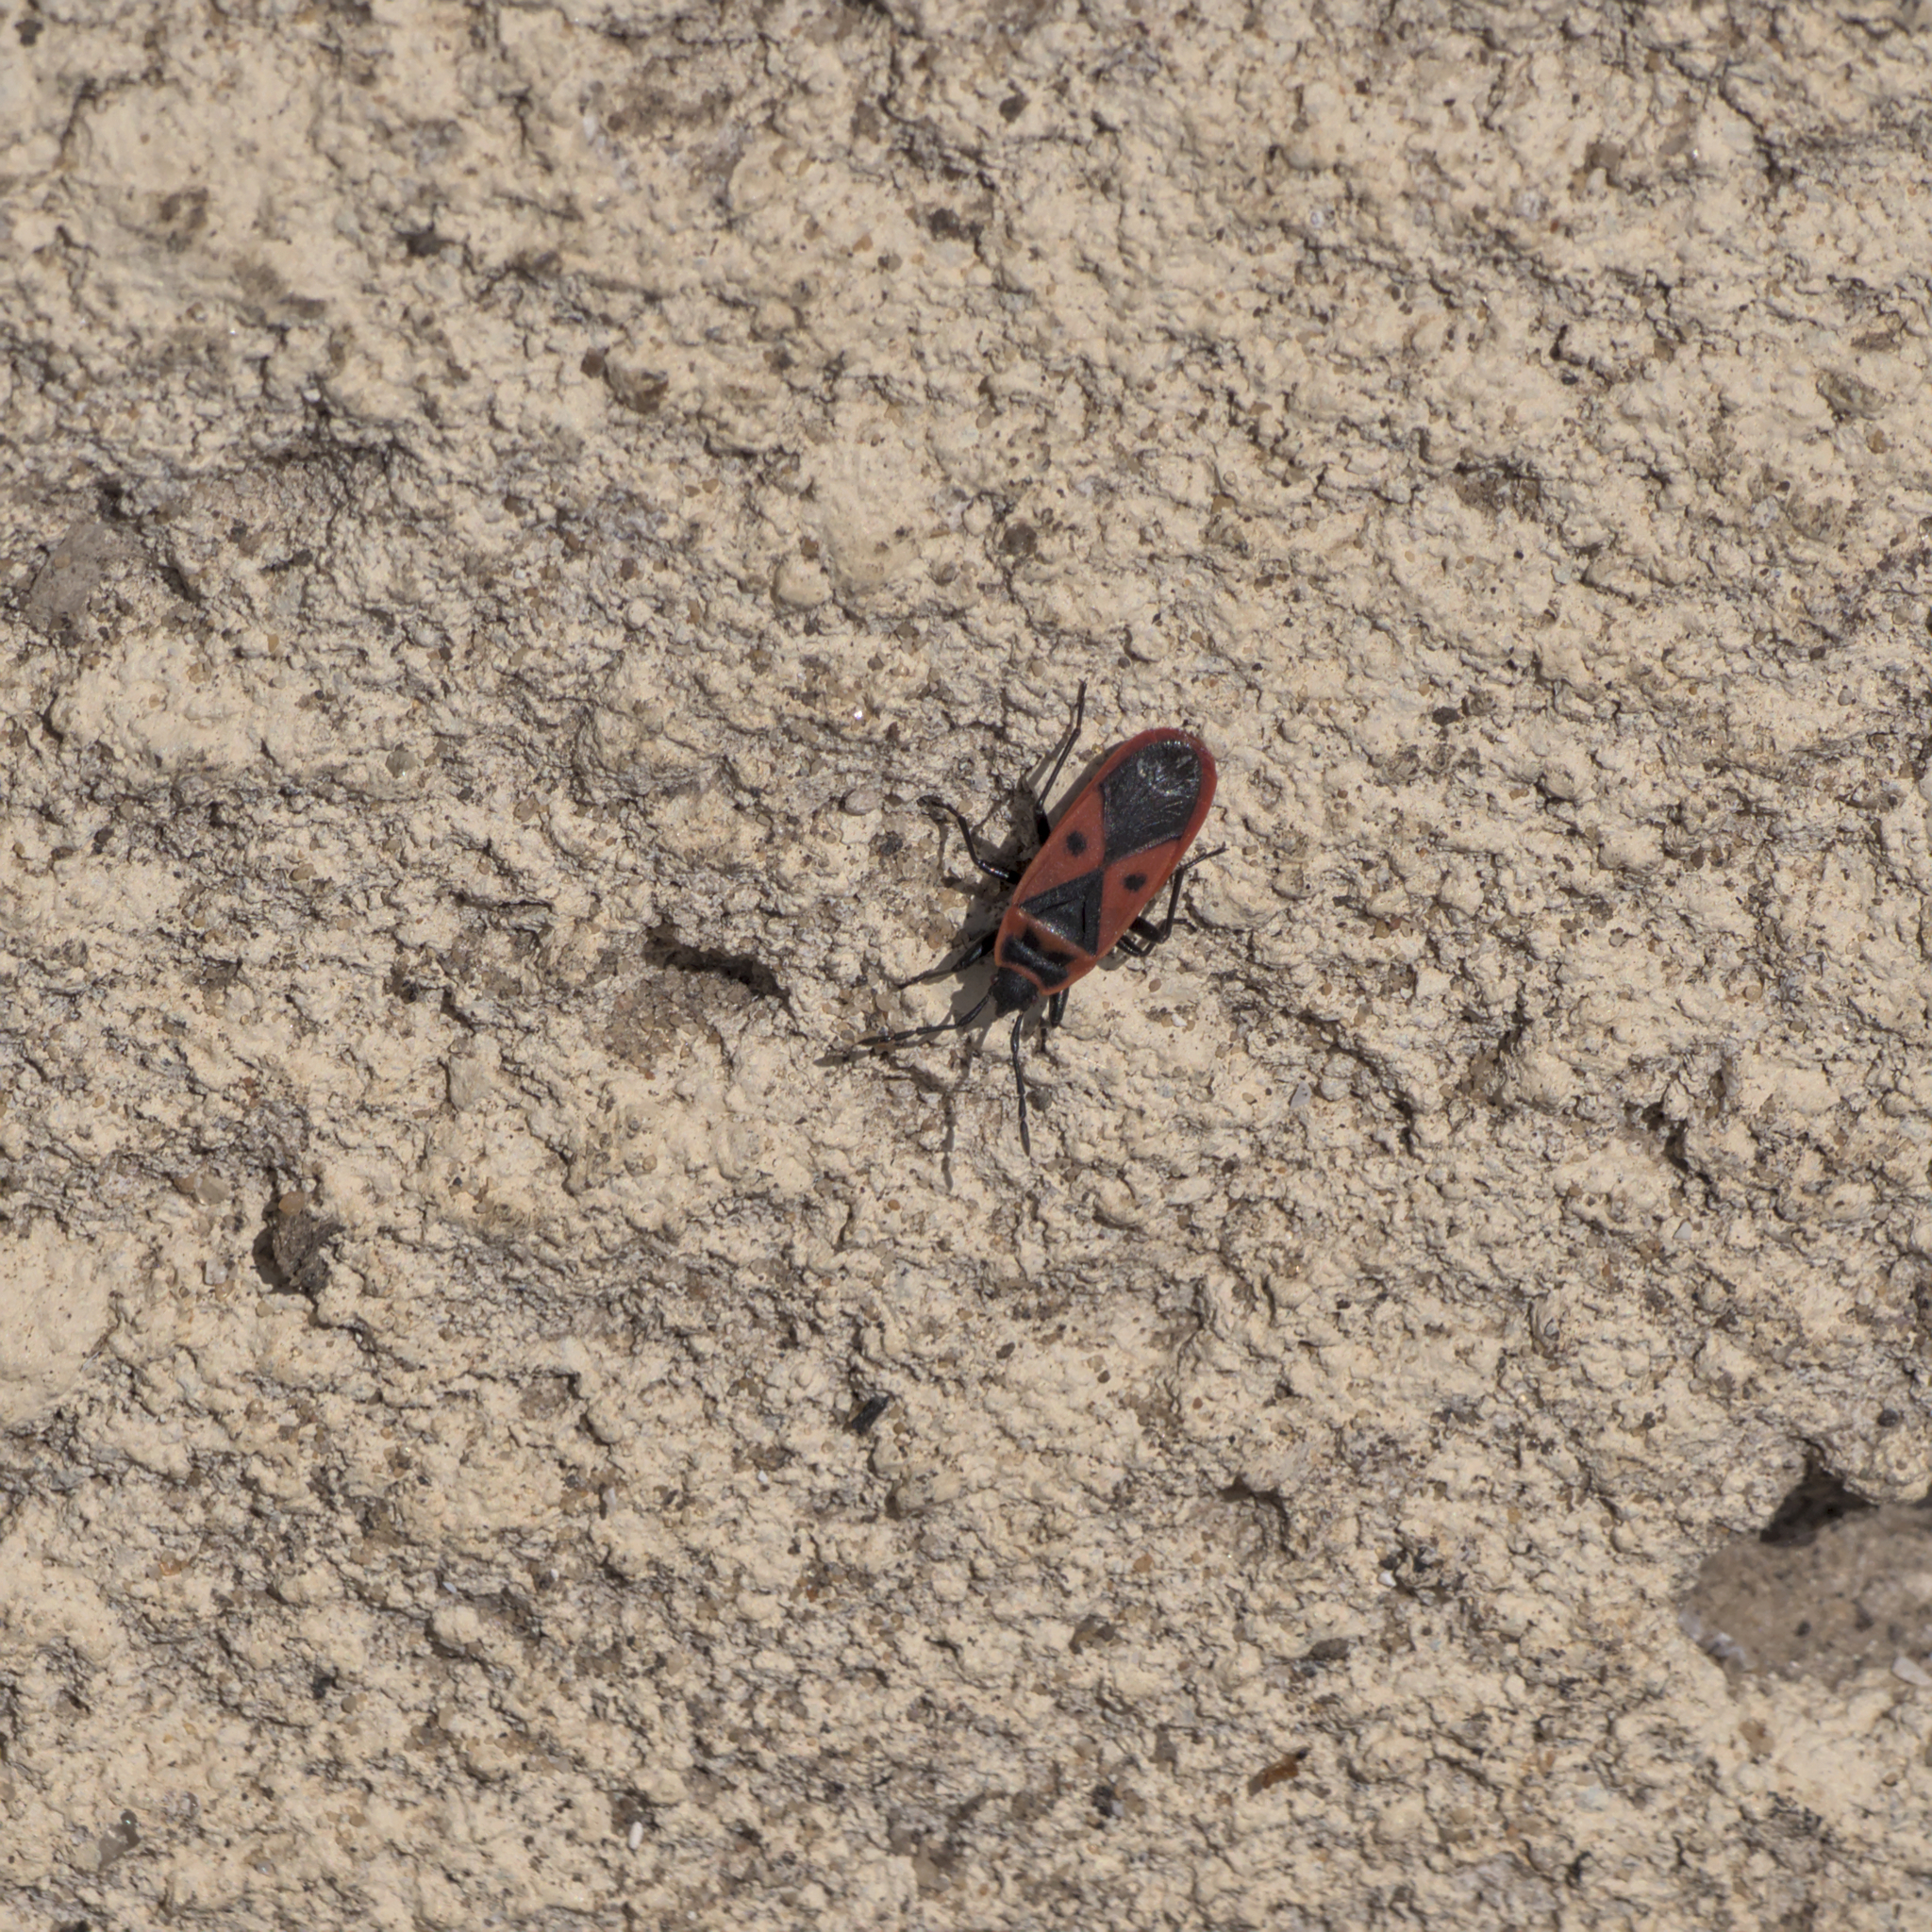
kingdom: Animalia
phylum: Arthropoda
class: Insecta
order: Hemiptera
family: Pyrrhocoridae
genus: Scantius
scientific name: Scantius aegyptius
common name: Red bug
